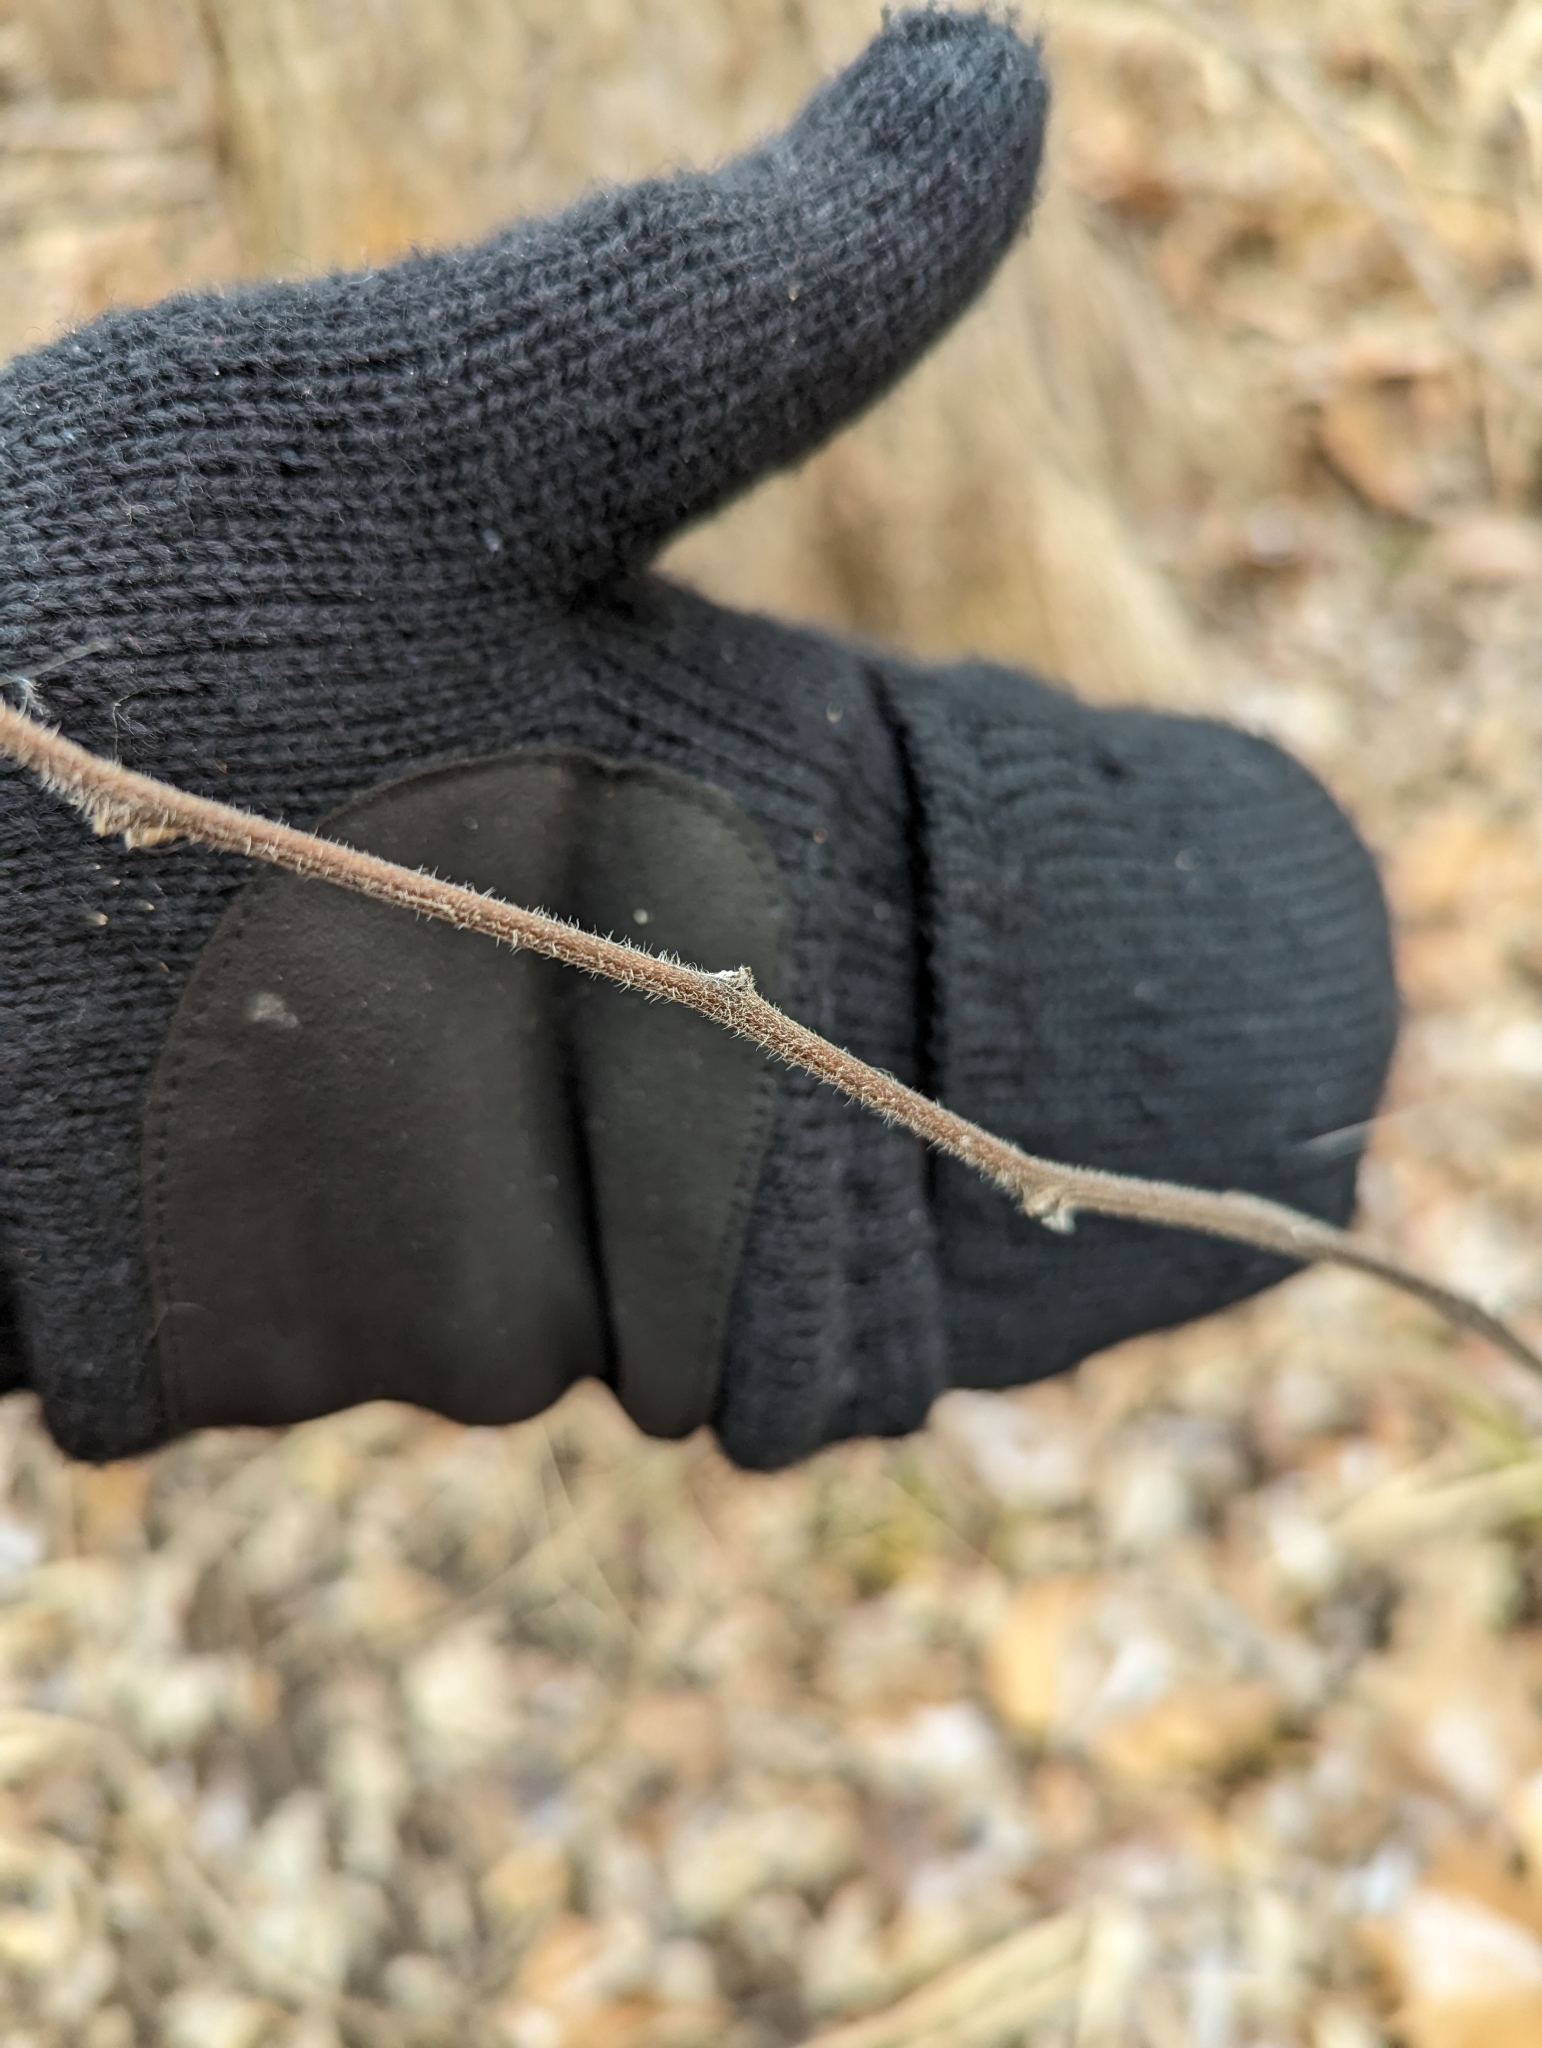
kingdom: Plantae
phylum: Tracheophyta
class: Magnoliopsida
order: Boraginales
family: Boraginaceae
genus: Hackelia
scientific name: Hackelia virginiana
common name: Beggar's-lice
